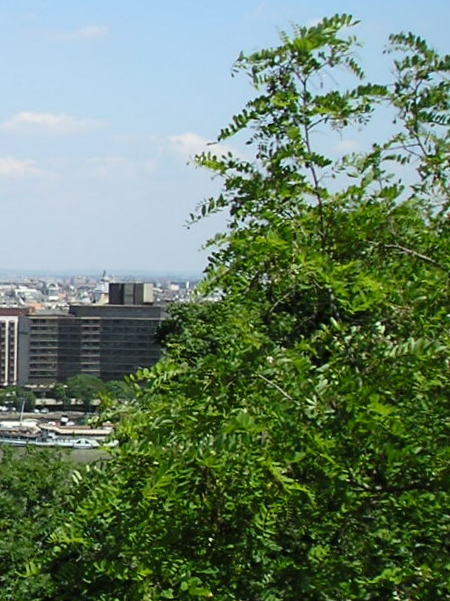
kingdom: Plantae
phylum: Tracheophyta
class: Magnoliopsida
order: Fabales
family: Fabaceae
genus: Robinia
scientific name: Robinia pseudoacacia
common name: Black locust
